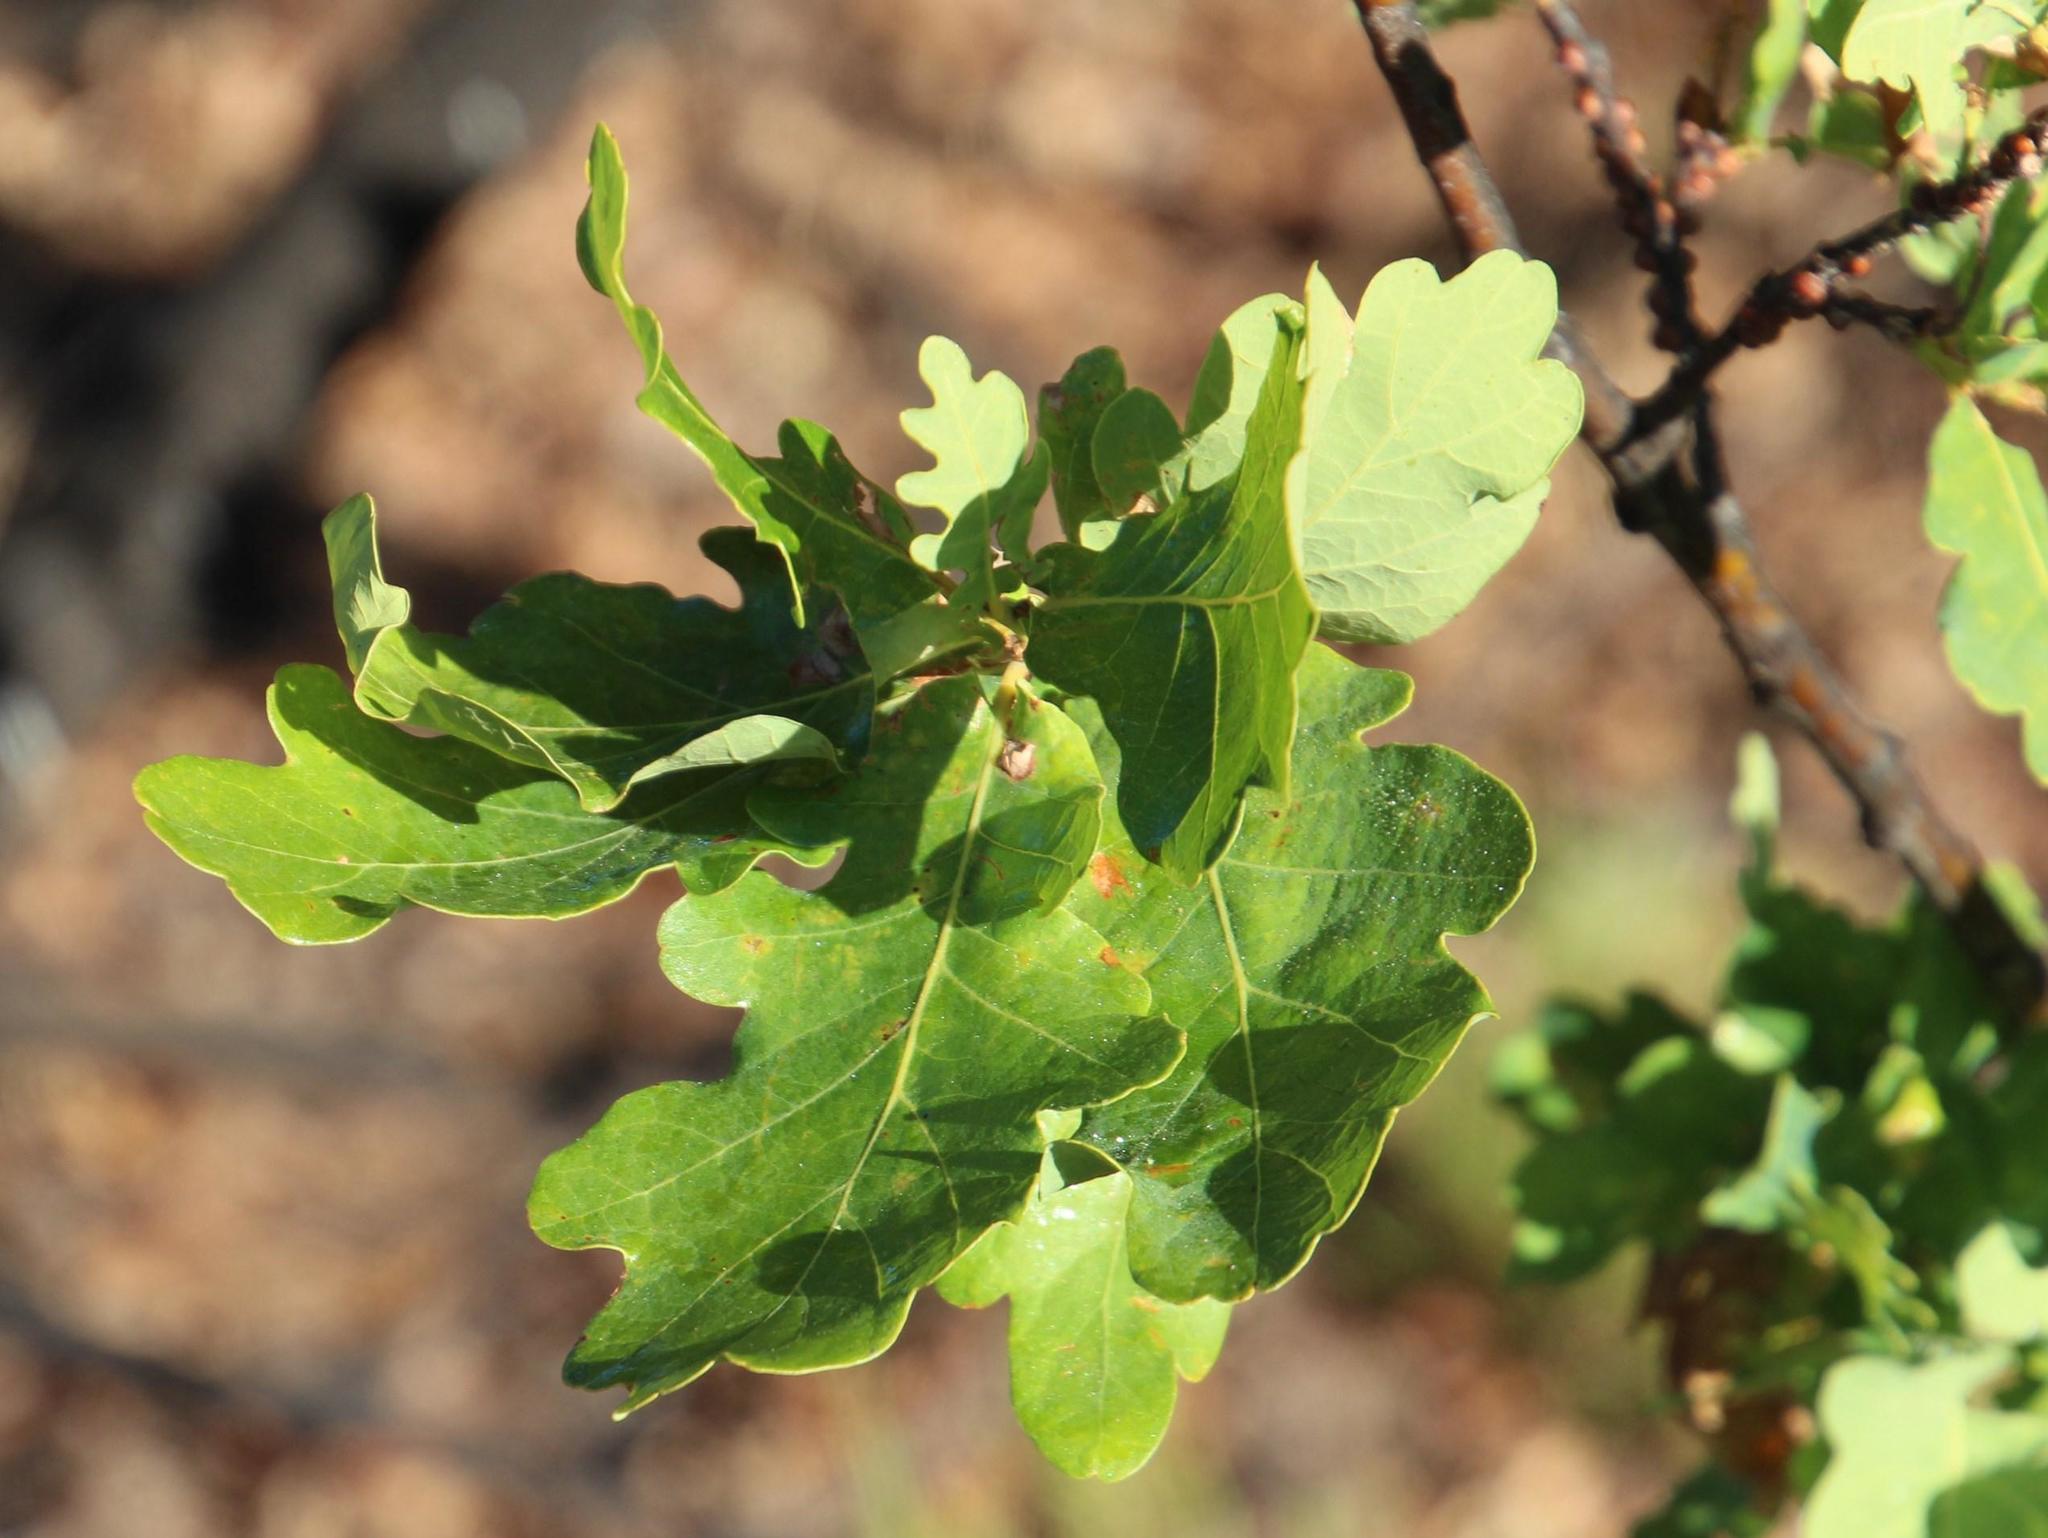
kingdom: Plantae
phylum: Tracheophyta
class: Magnoliopsida
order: Fagales
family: Fagaceae
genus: Quercus
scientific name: Quercus robur
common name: Pedunculate oak
